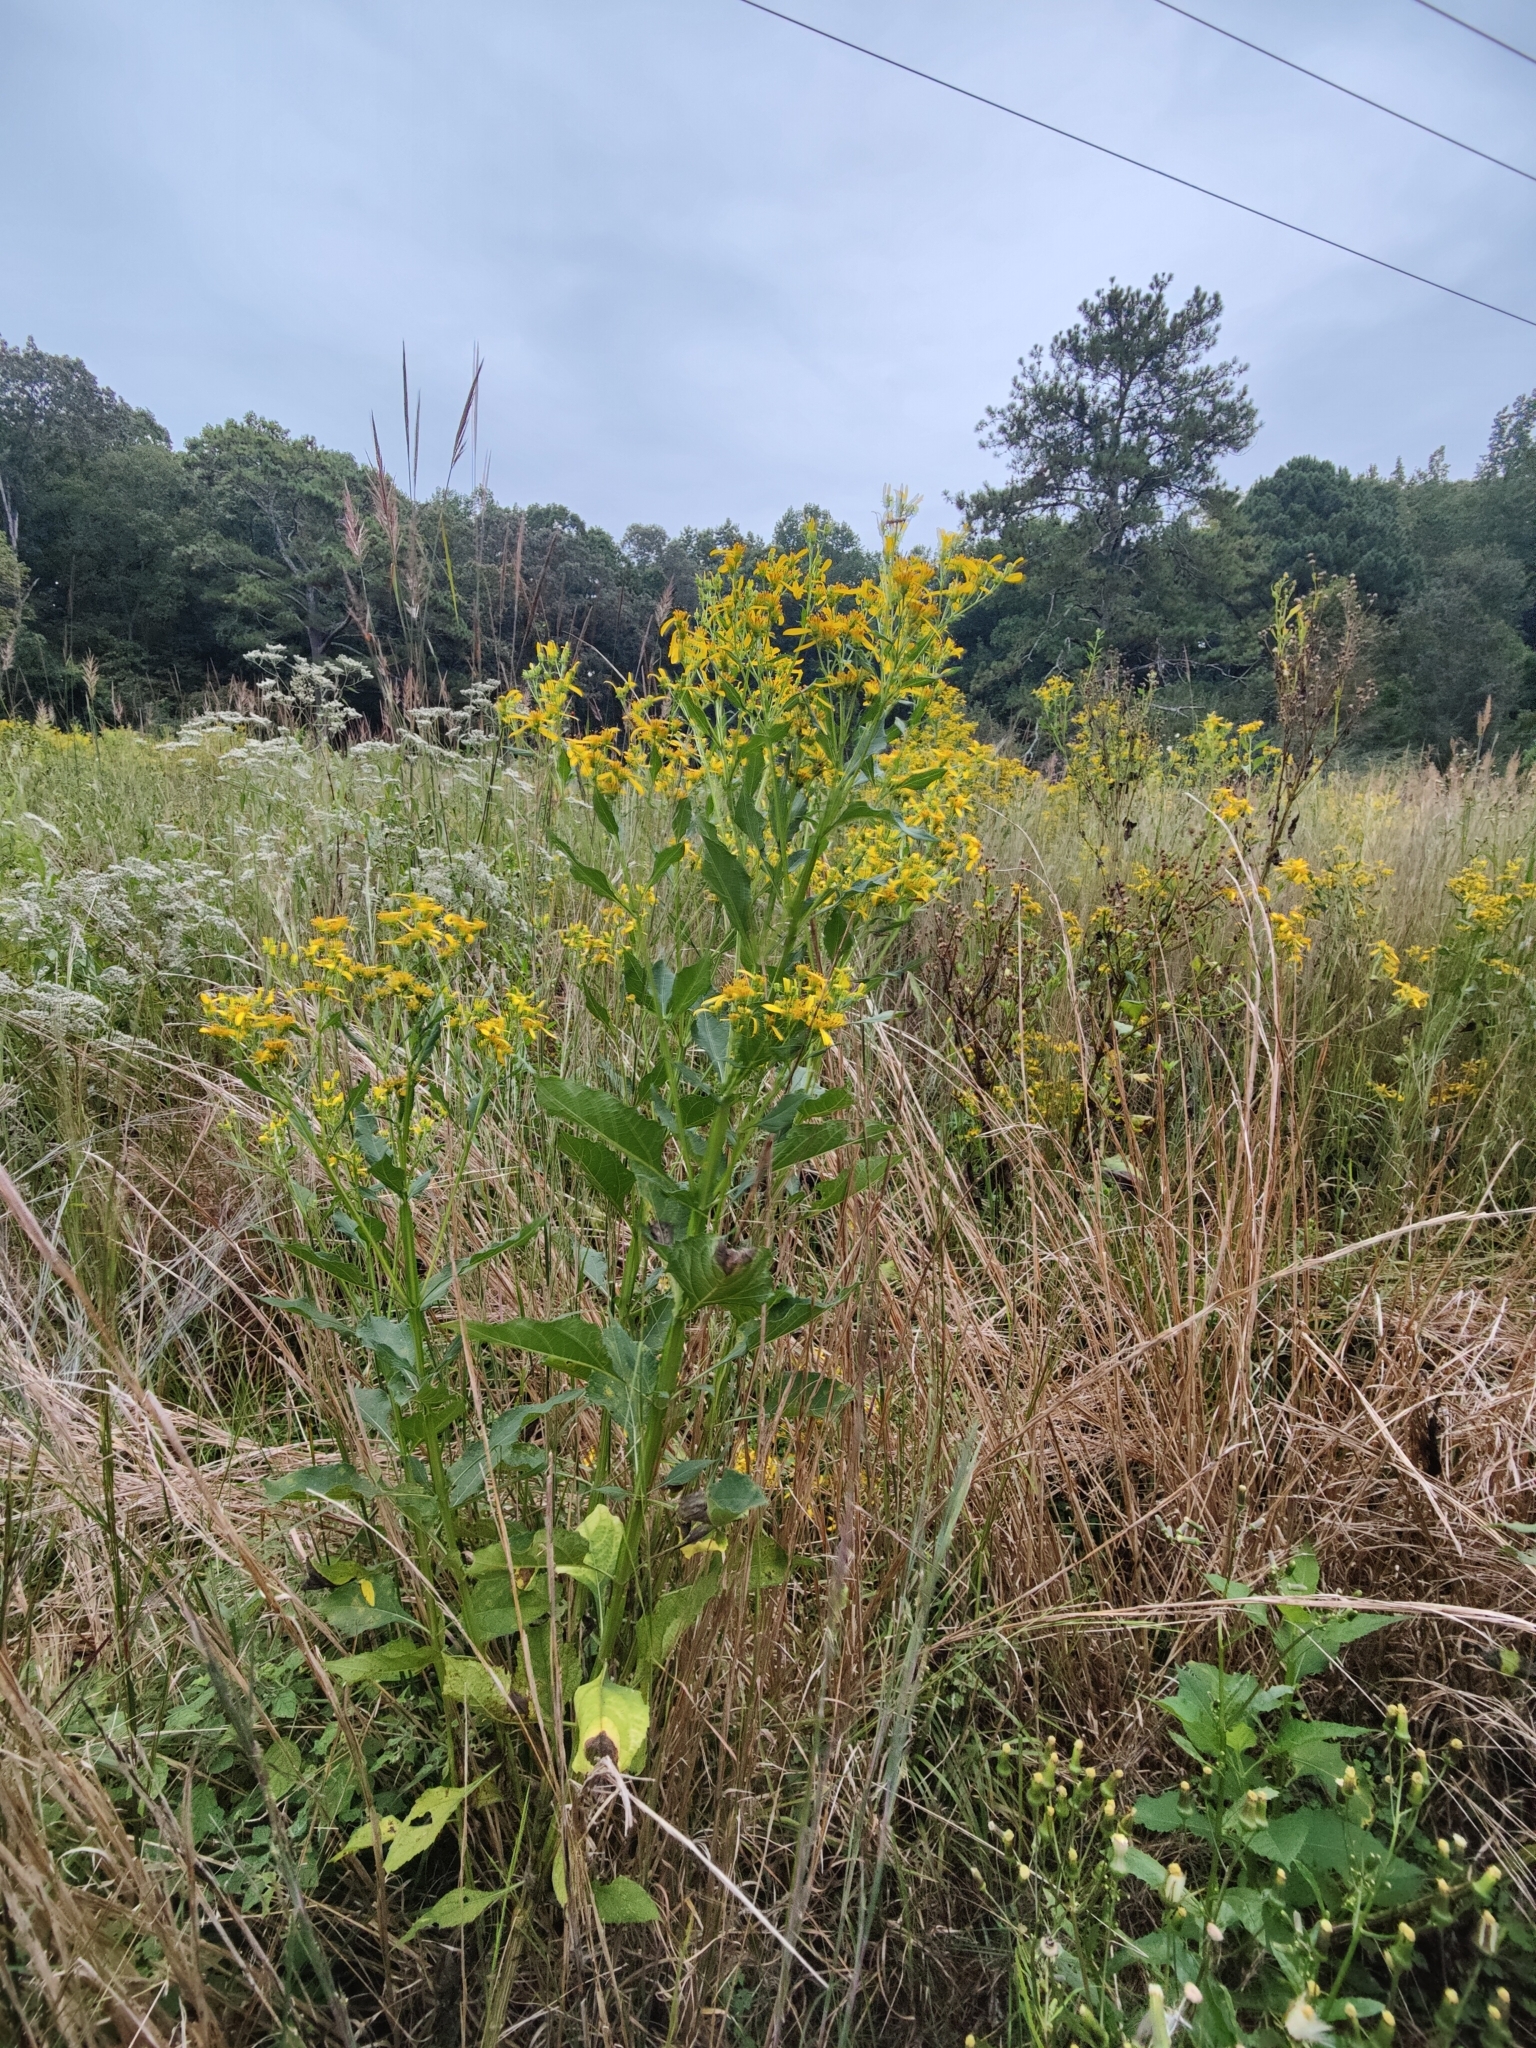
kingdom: Plantae
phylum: Tracheophyta
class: Magnoliopsida
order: Asterales
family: Asteraceae
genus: Verbesina
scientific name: Verbesina occidentalis
